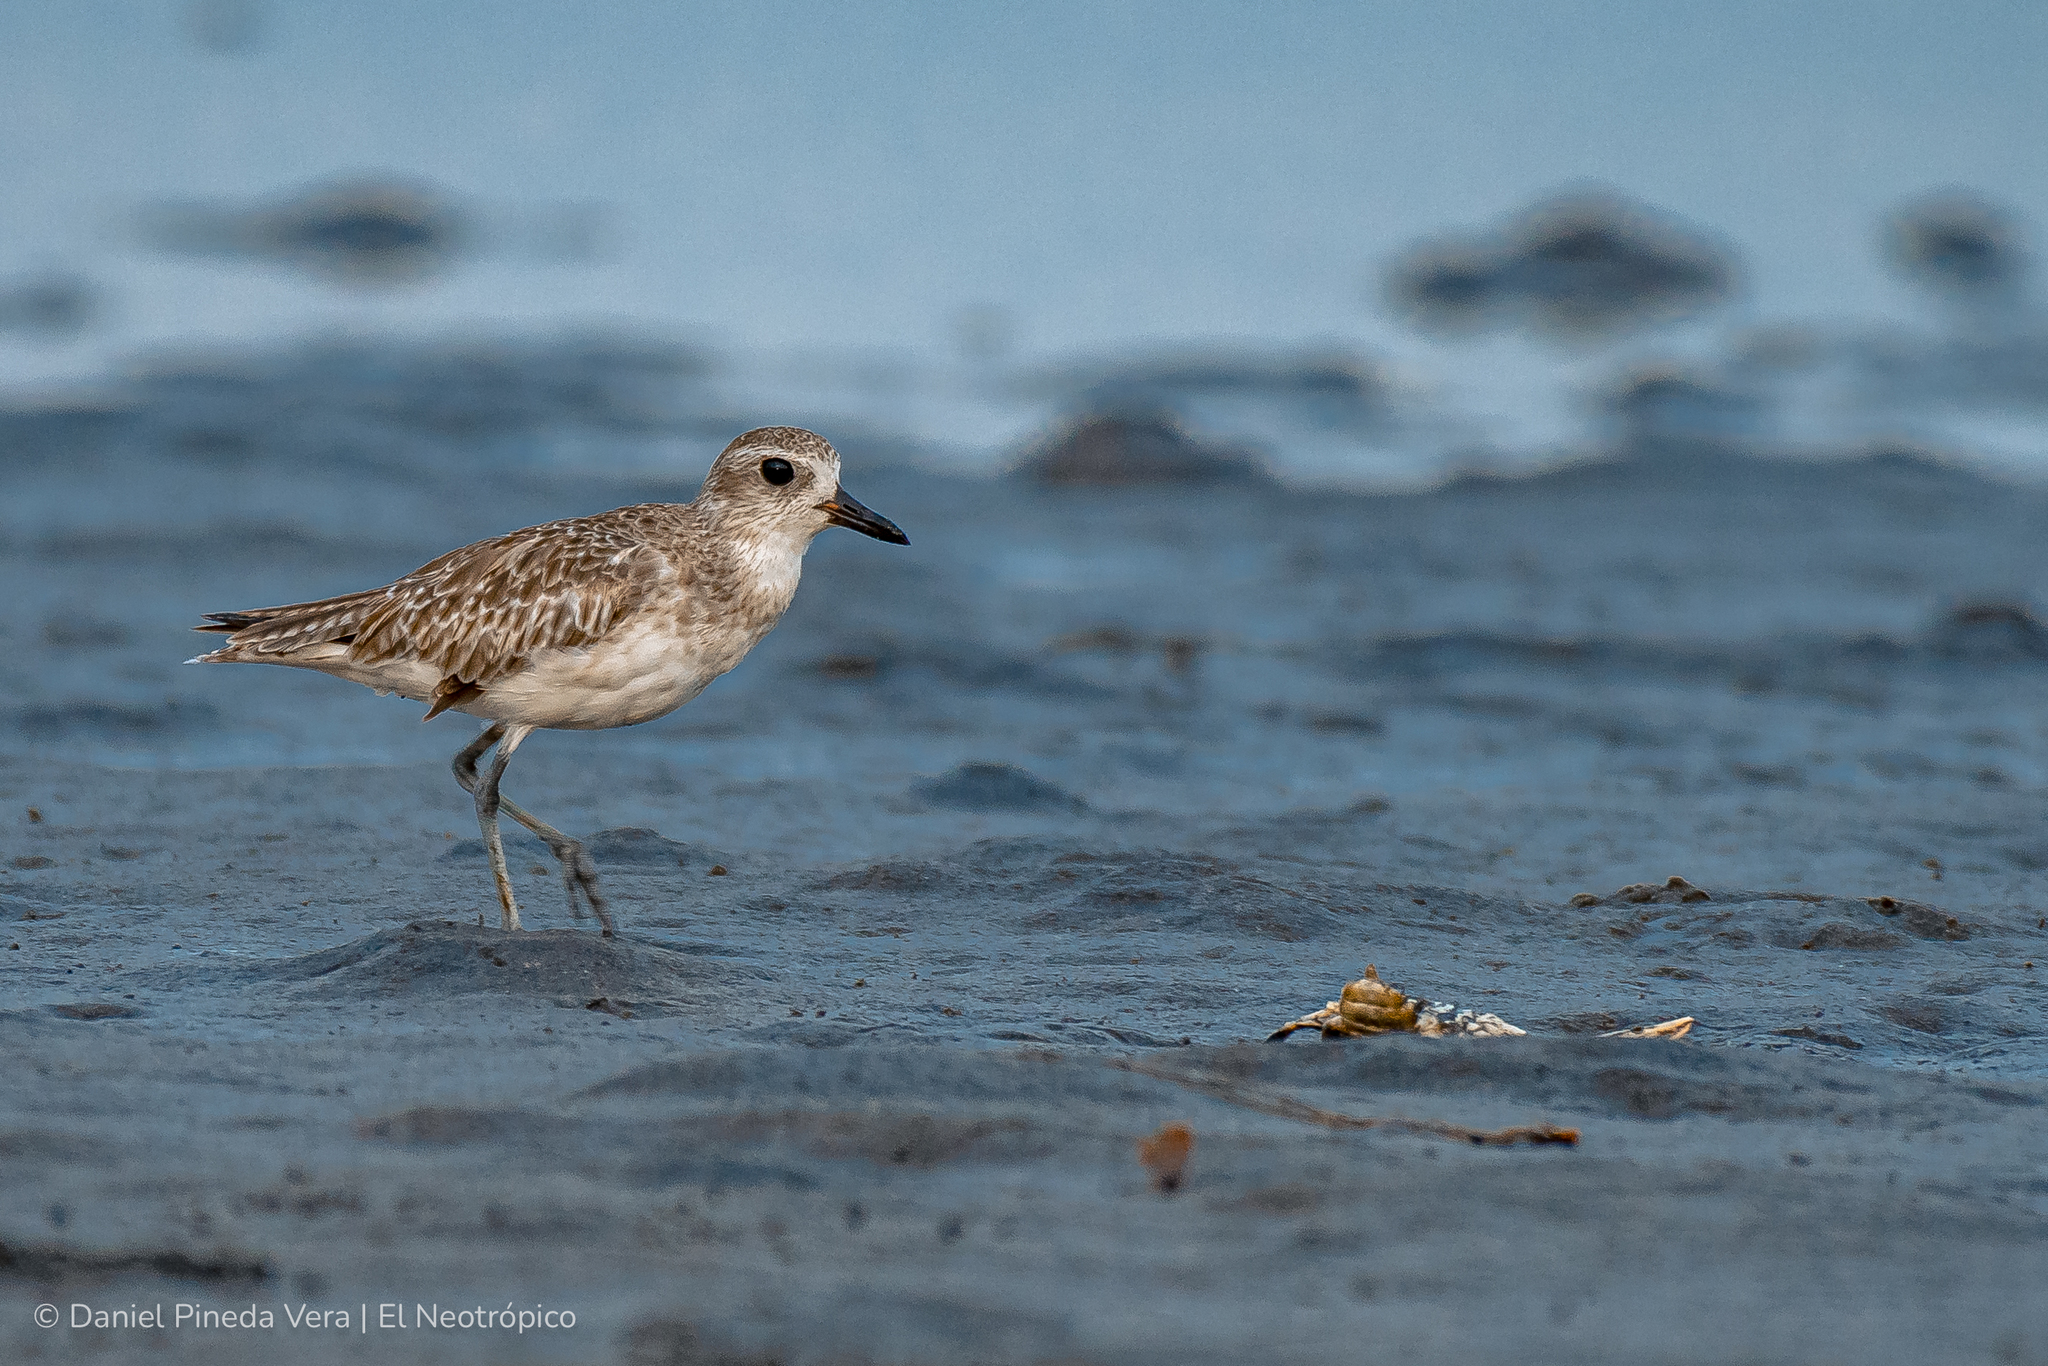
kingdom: Animalia
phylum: Chordata
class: Aves
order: Charadriiformes
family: Charadriidae
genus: Pluvialis
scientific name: Pluvialis squatarola
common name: Grey plover
